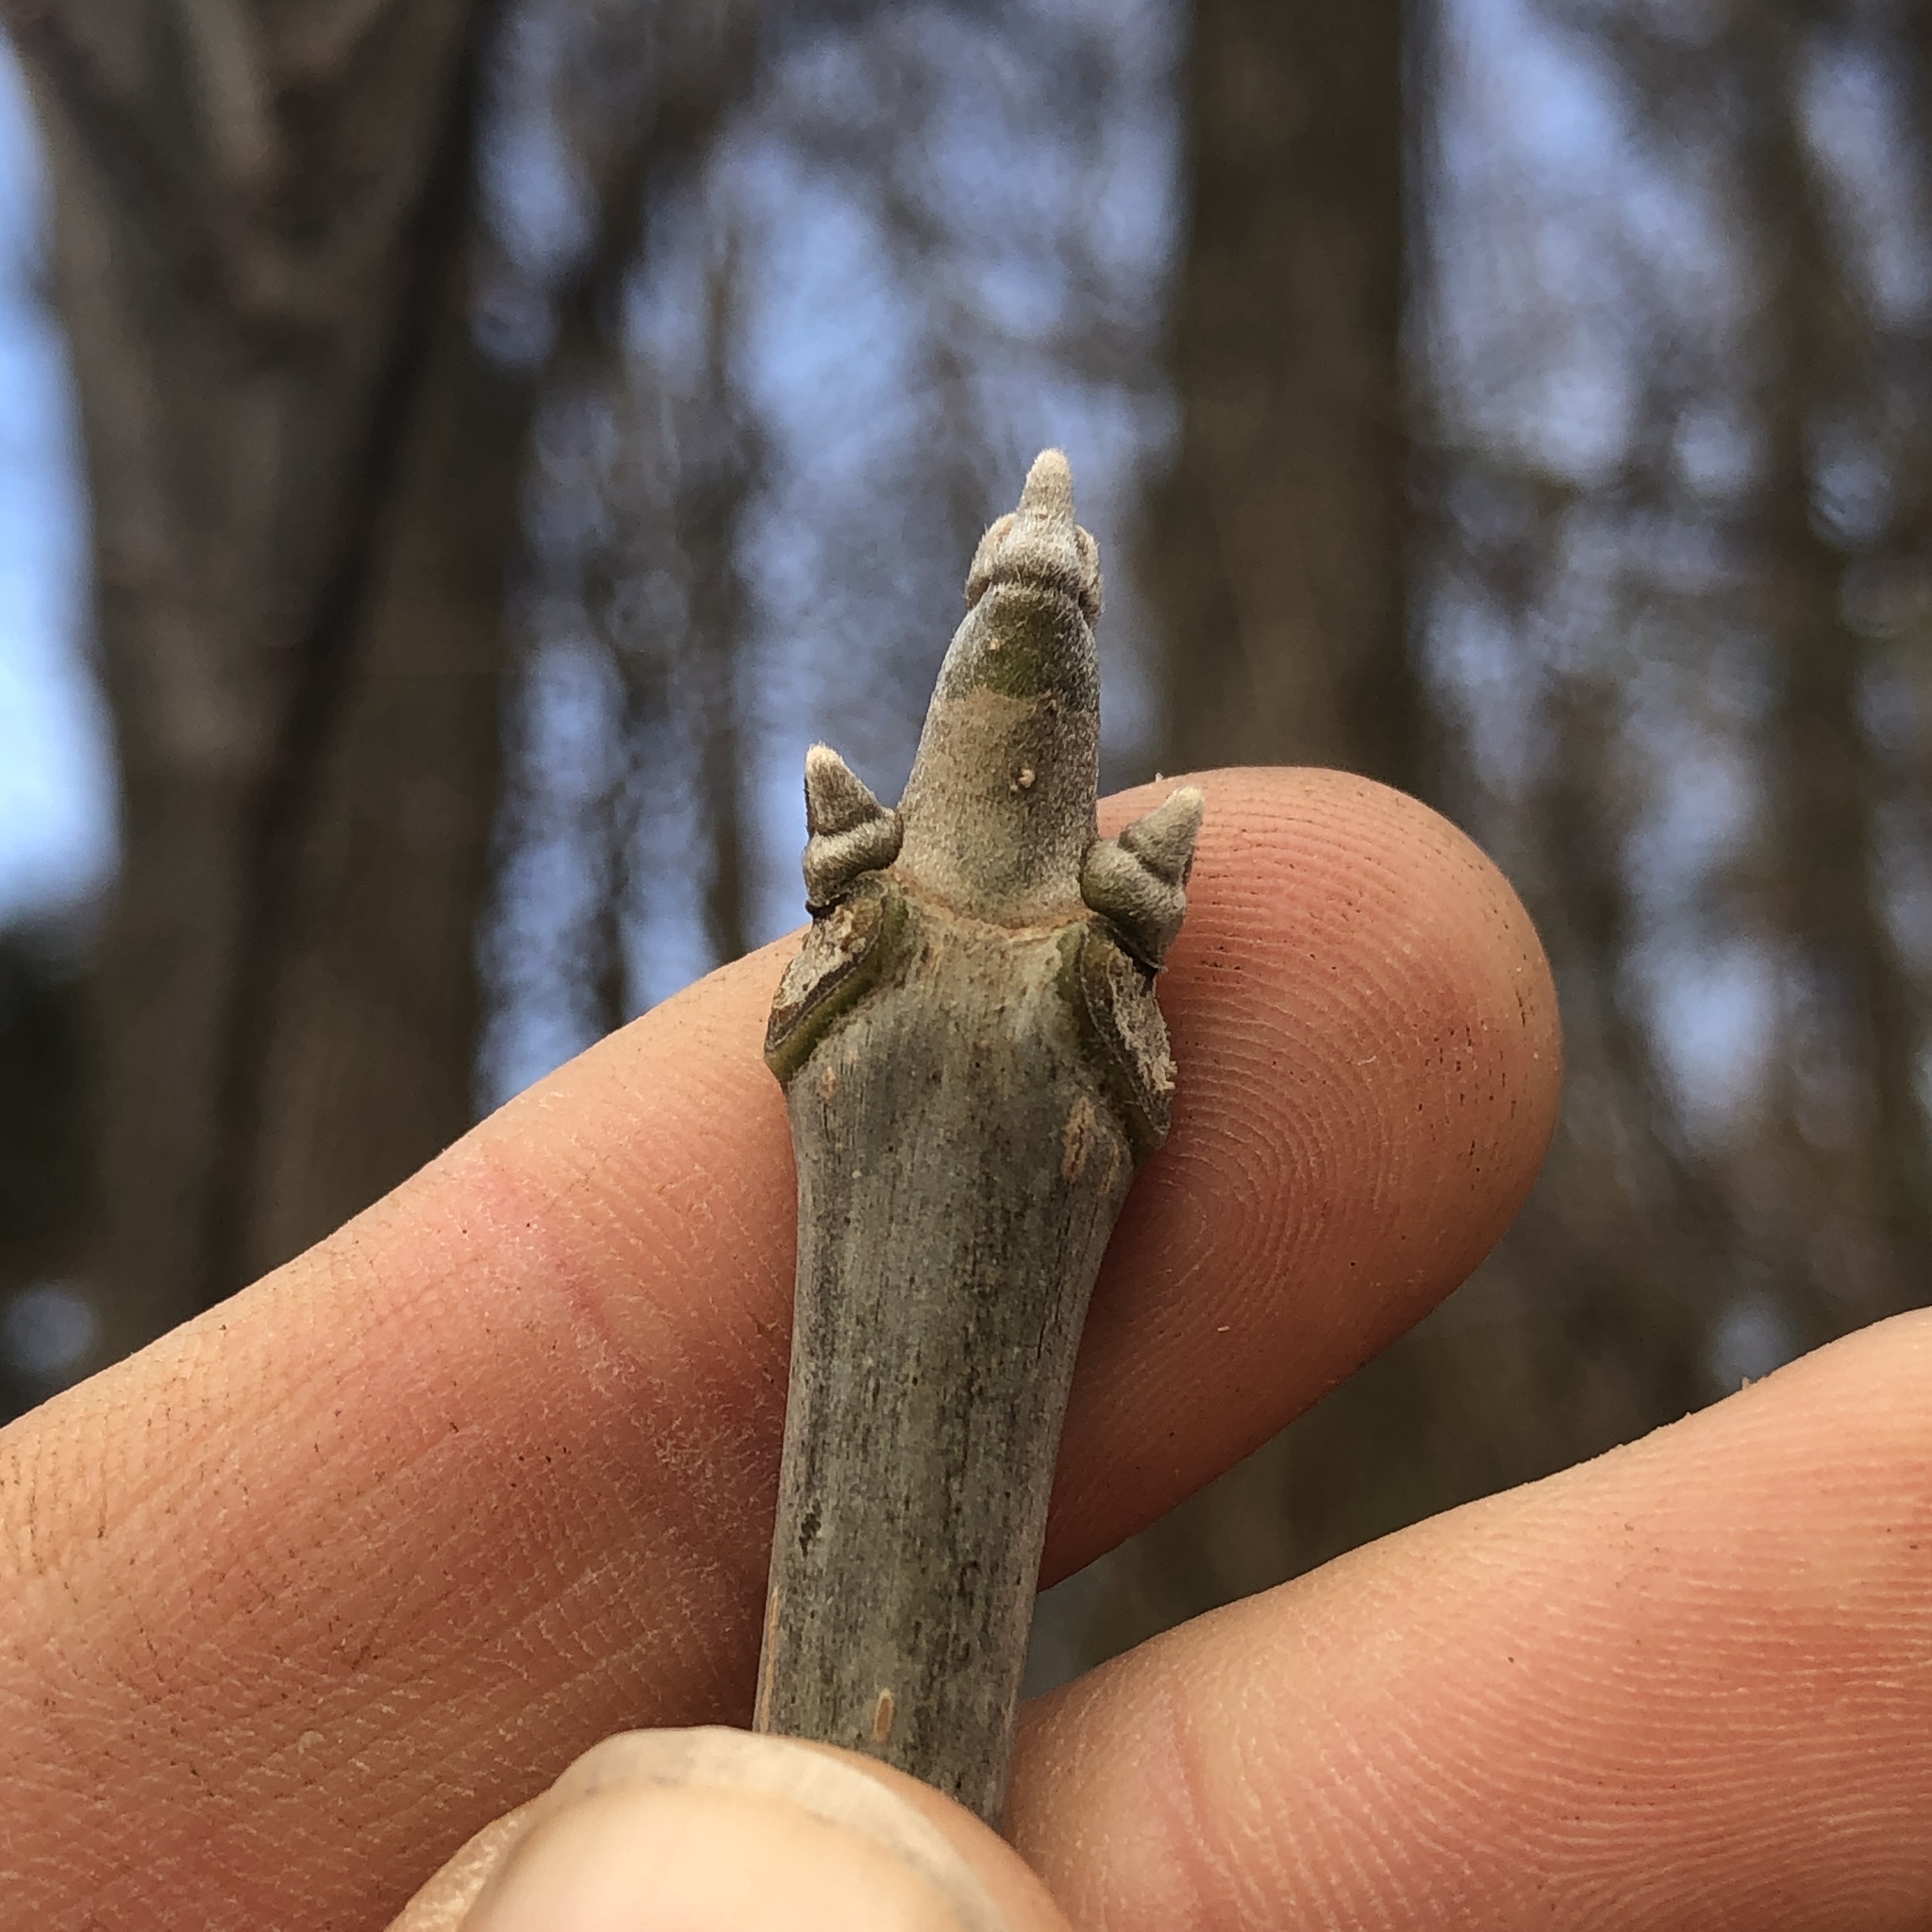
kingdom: Plantae
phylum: Tracheophyta
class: Magnoliopsida
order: Sapindales
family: Rutaceae
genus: Tetradium
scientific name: Tetradium daniellii
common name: Bee-bee tree
